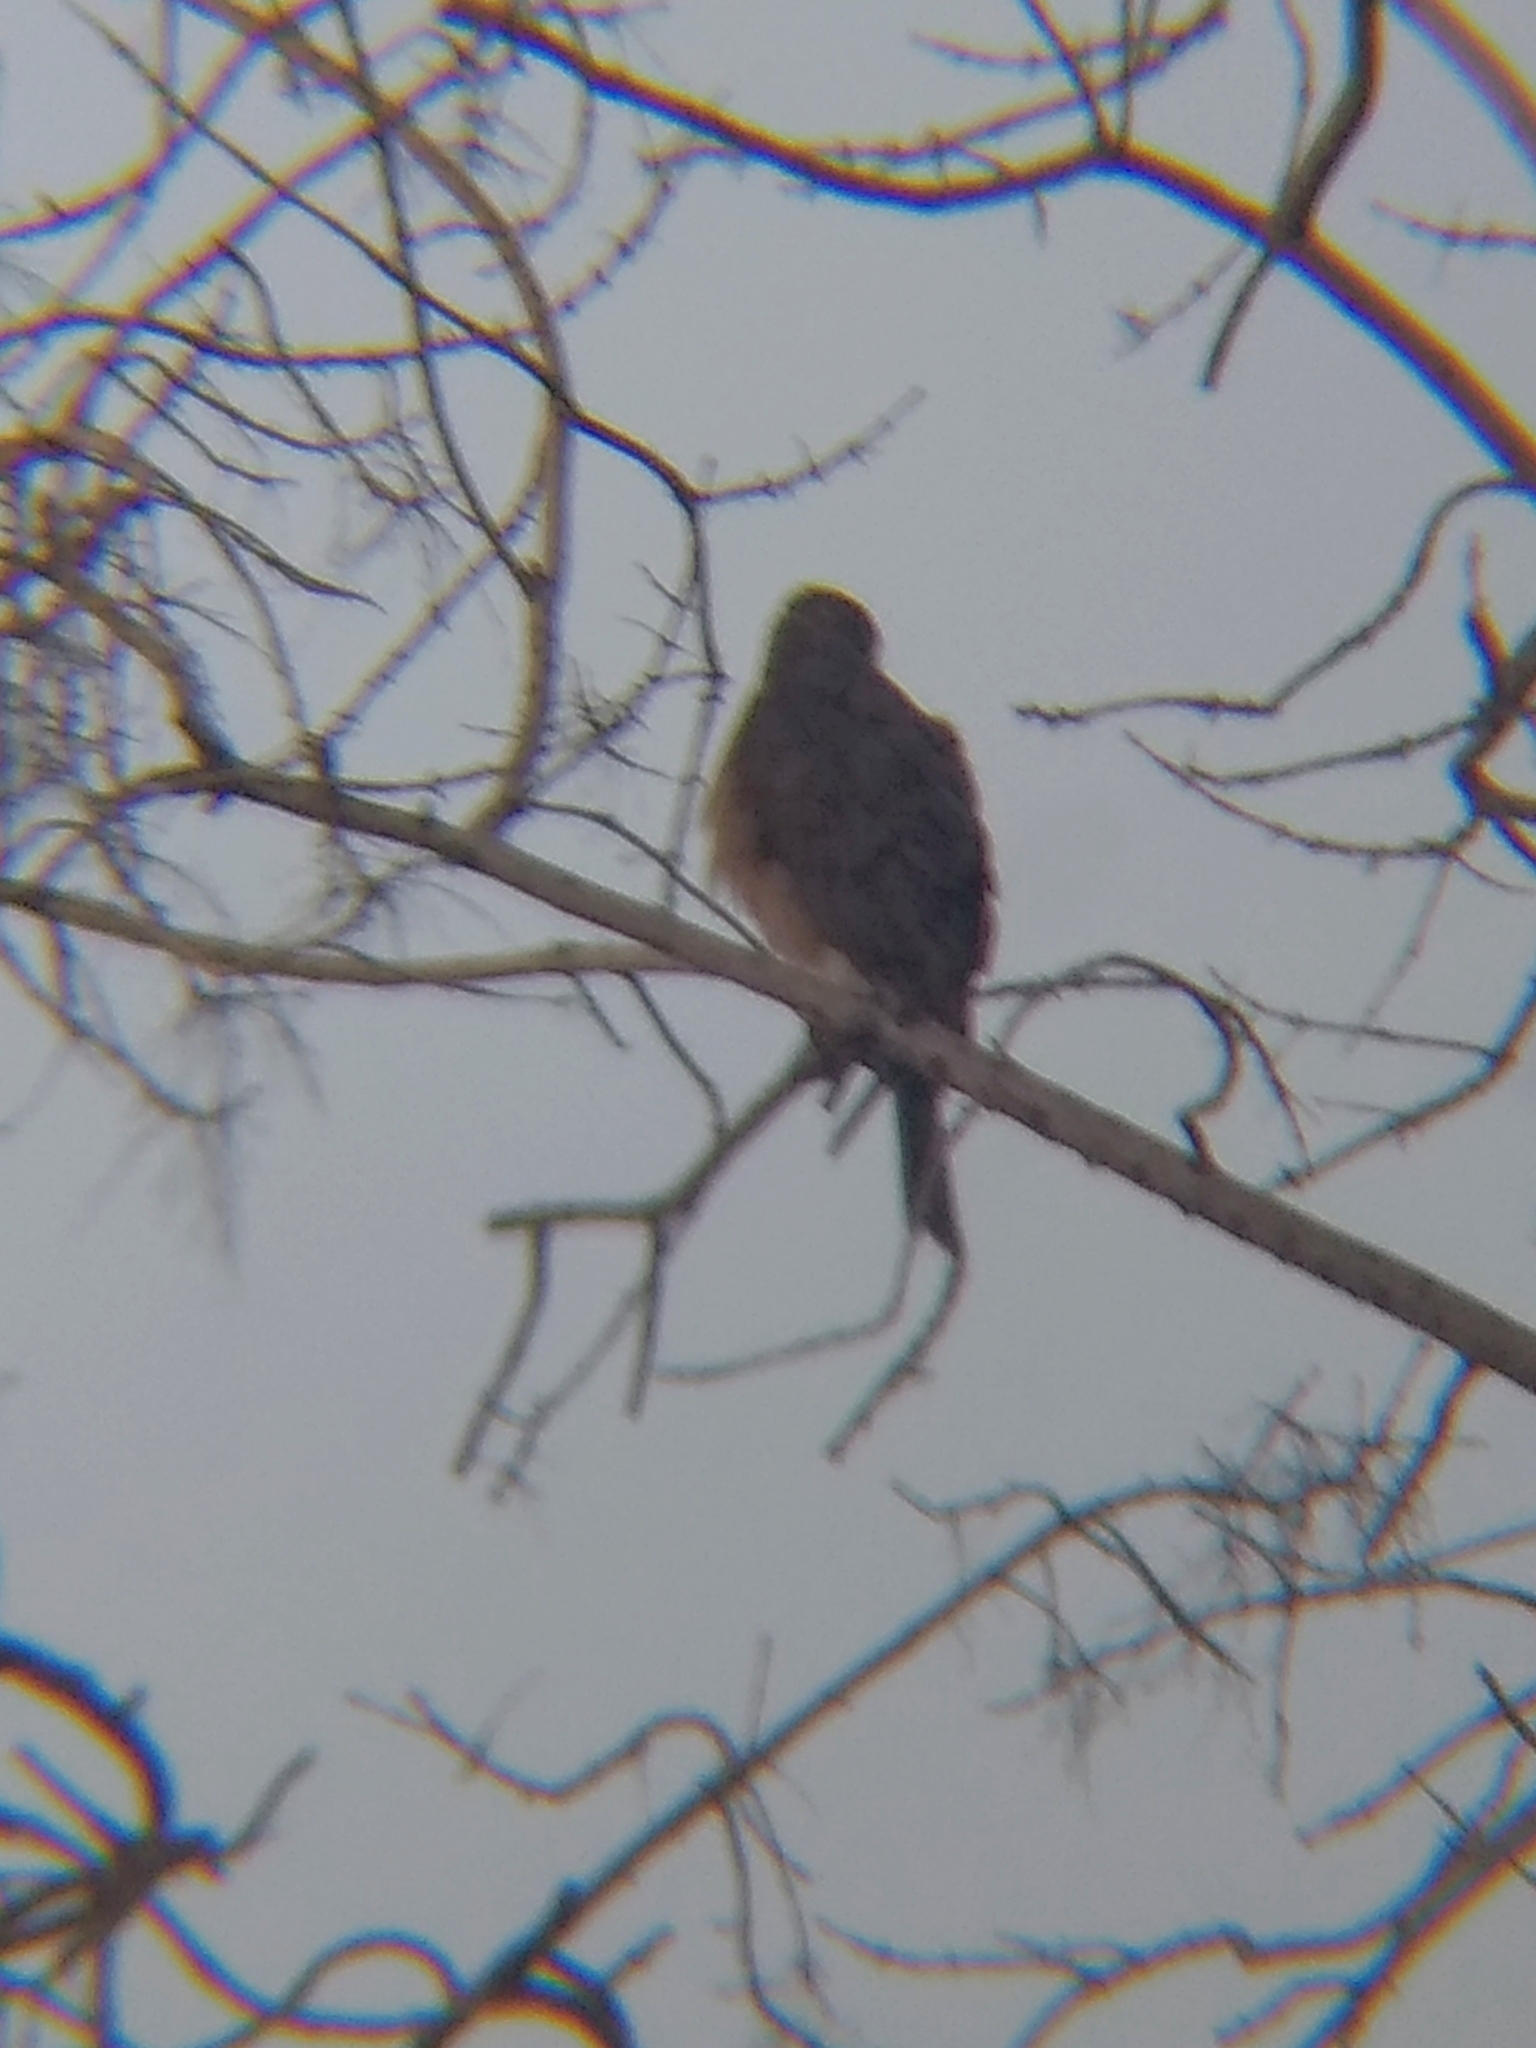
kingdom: Animalia
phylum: Chordata
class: Aves
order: Accipitriformes
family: Accipitridae
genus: Accipiter
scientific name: Accipiter cooperii
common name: Cooper's hawk
